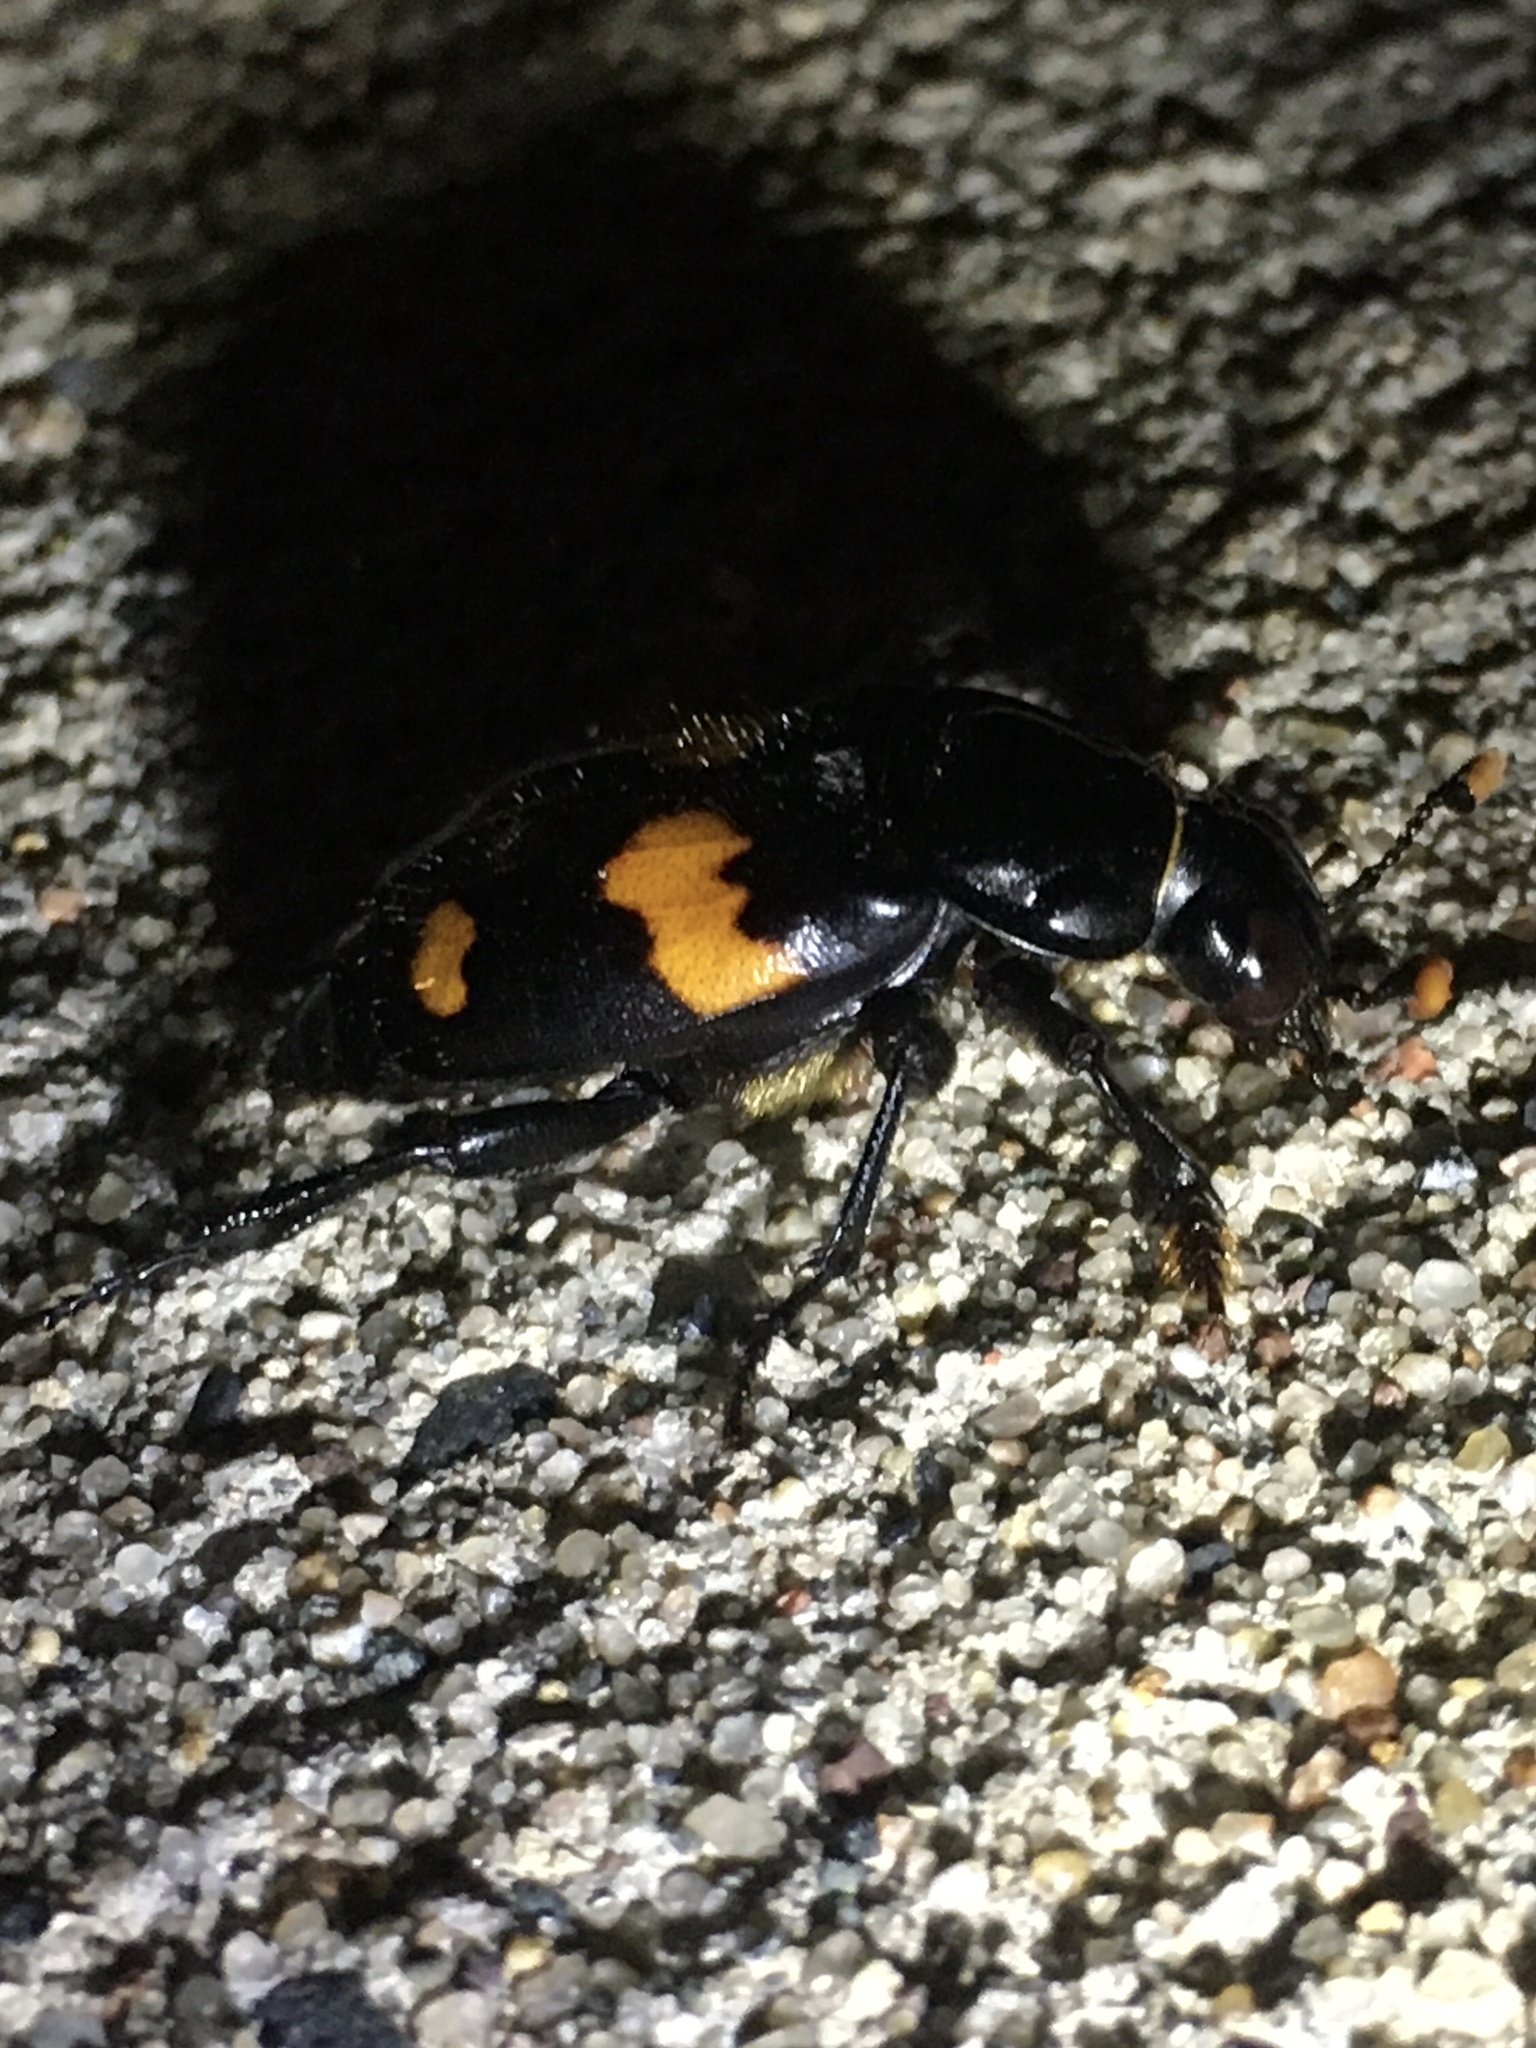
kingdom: Animalia
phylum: Arthropoda
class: Insecta
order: Coleoptera
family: Staphylinidae
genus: Nicrophorus
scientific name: Nicrophorus orbicollis
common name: Roundneck sexton beetle
